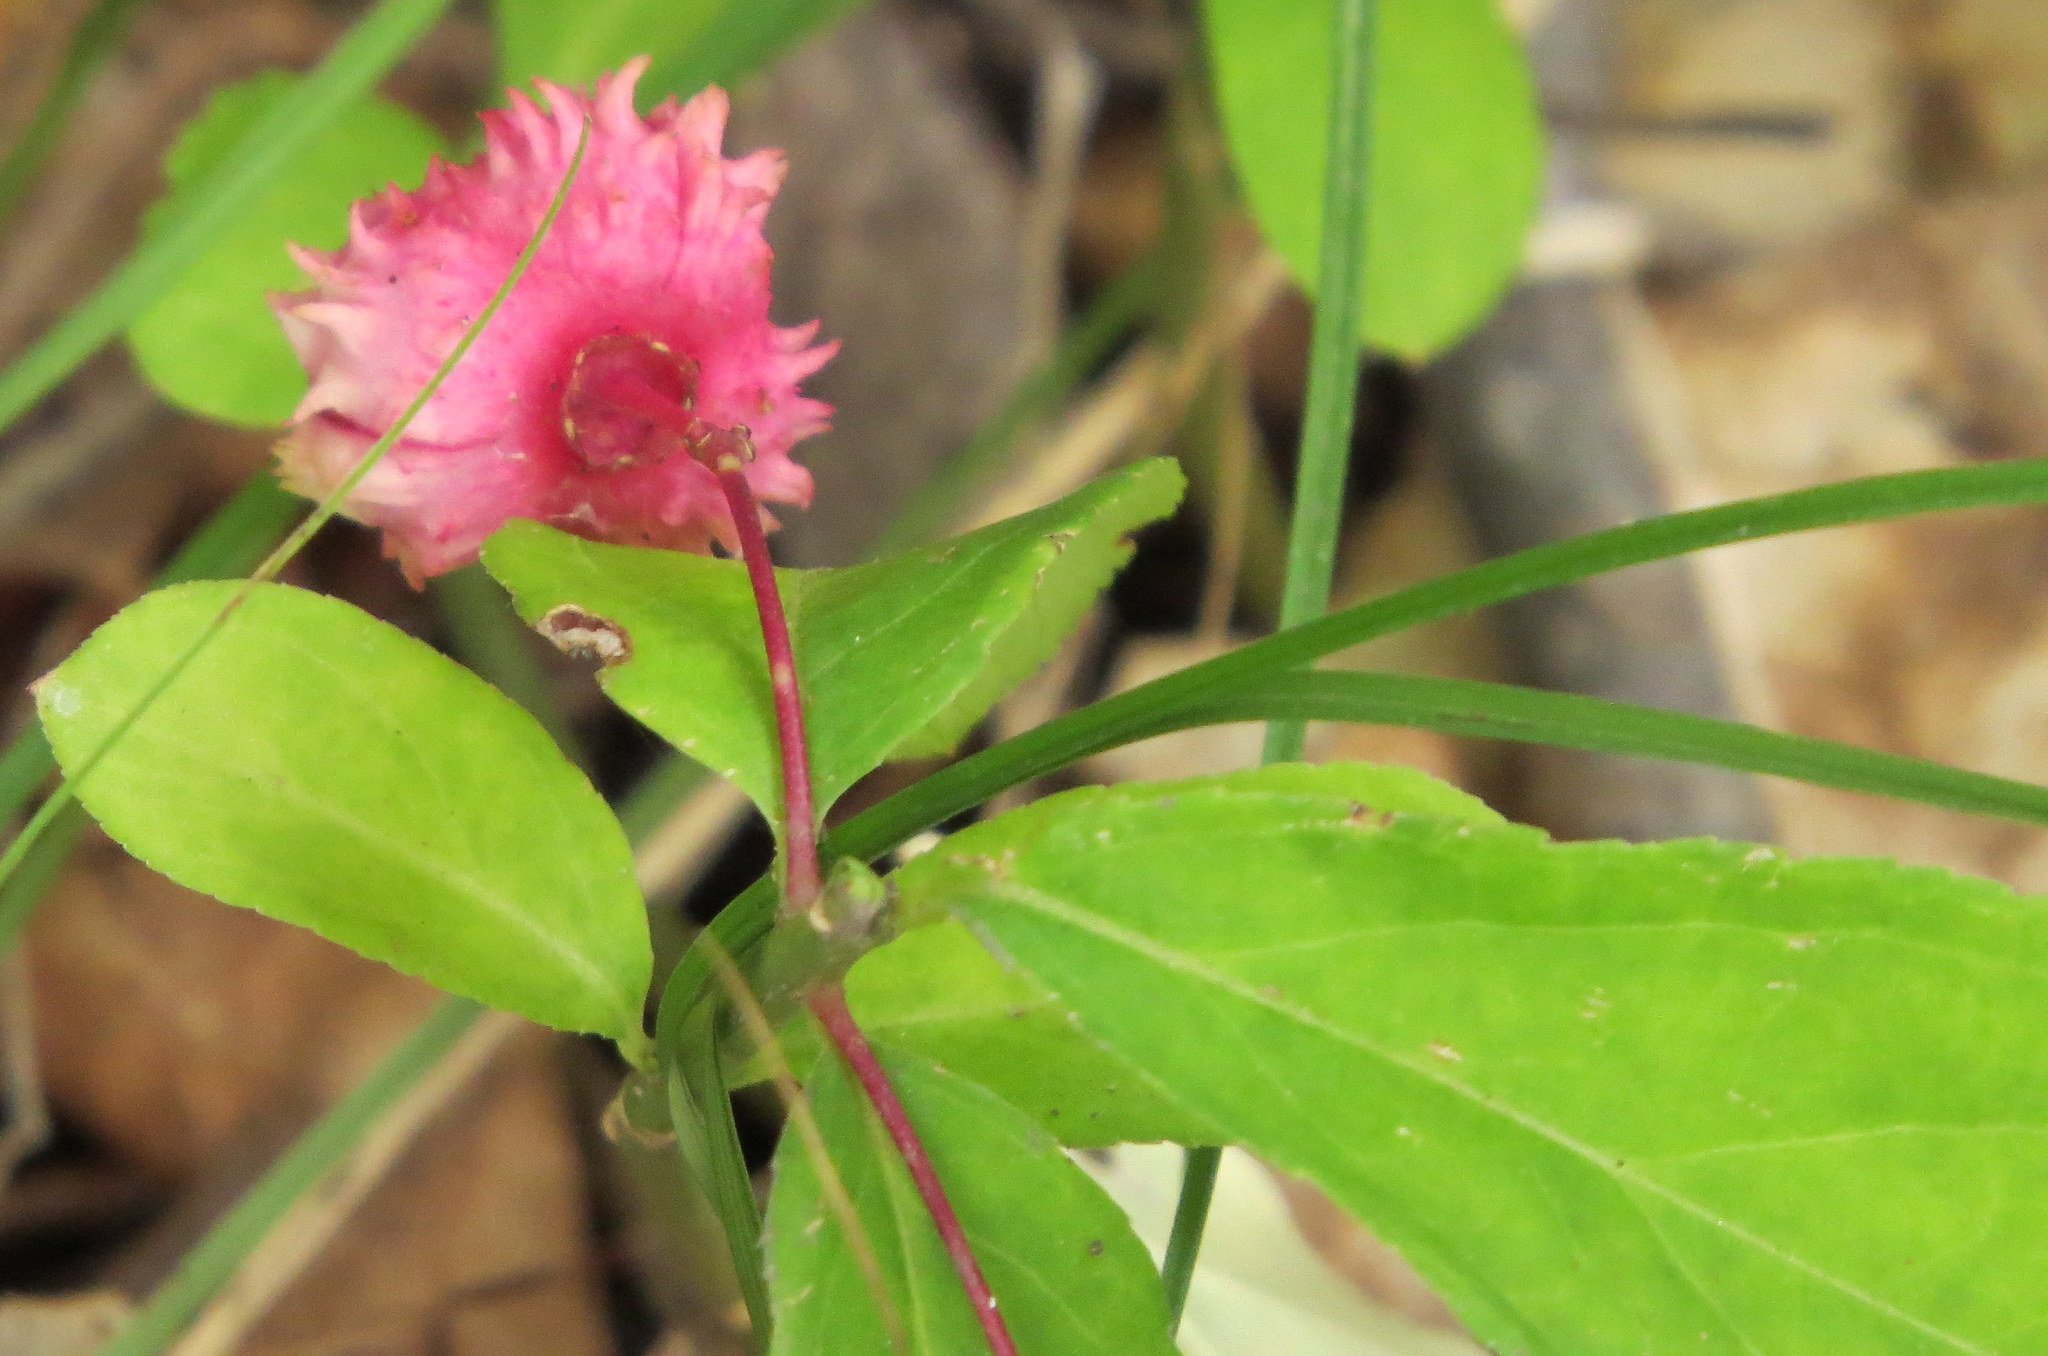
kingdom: Plantae
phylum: Tracheophyta
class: Magnoliopsida
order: Celastrales
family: Celastraceae
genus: Euonymus
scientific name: Euonymus obovatus
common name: Running strawberry-bush
